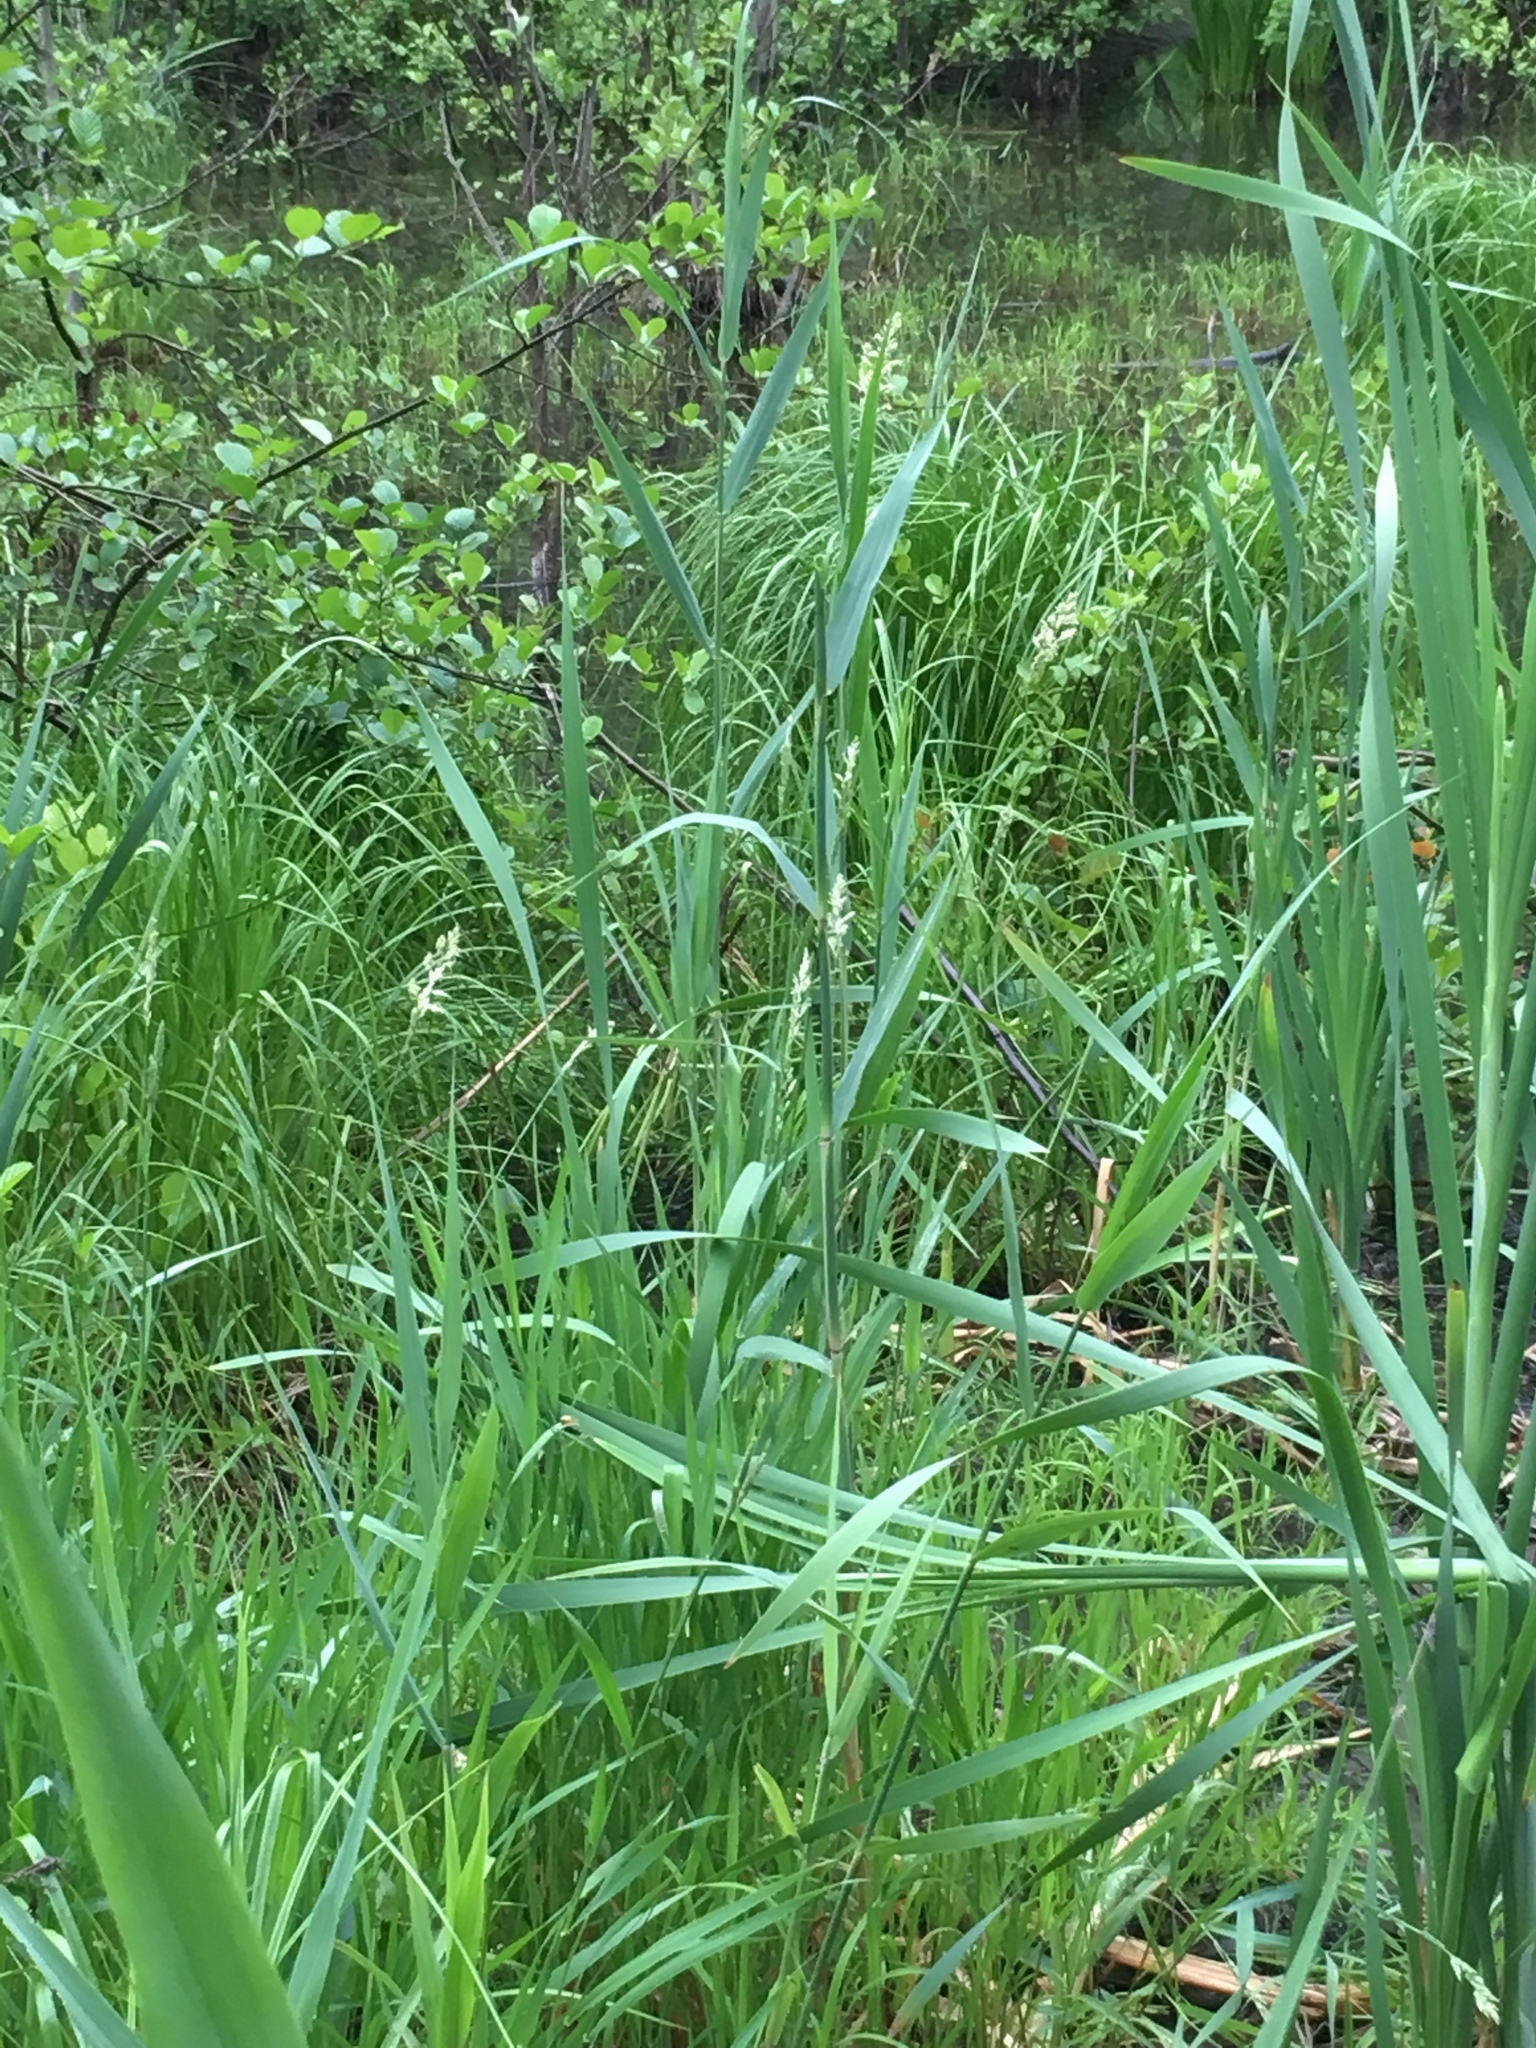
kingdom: Plantae
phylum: Tracheophyta
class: Liliopsida
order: Poales
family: Poaceae
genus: Phalaris
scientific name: Phalaris arundinacea
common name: Reed canary-grass
